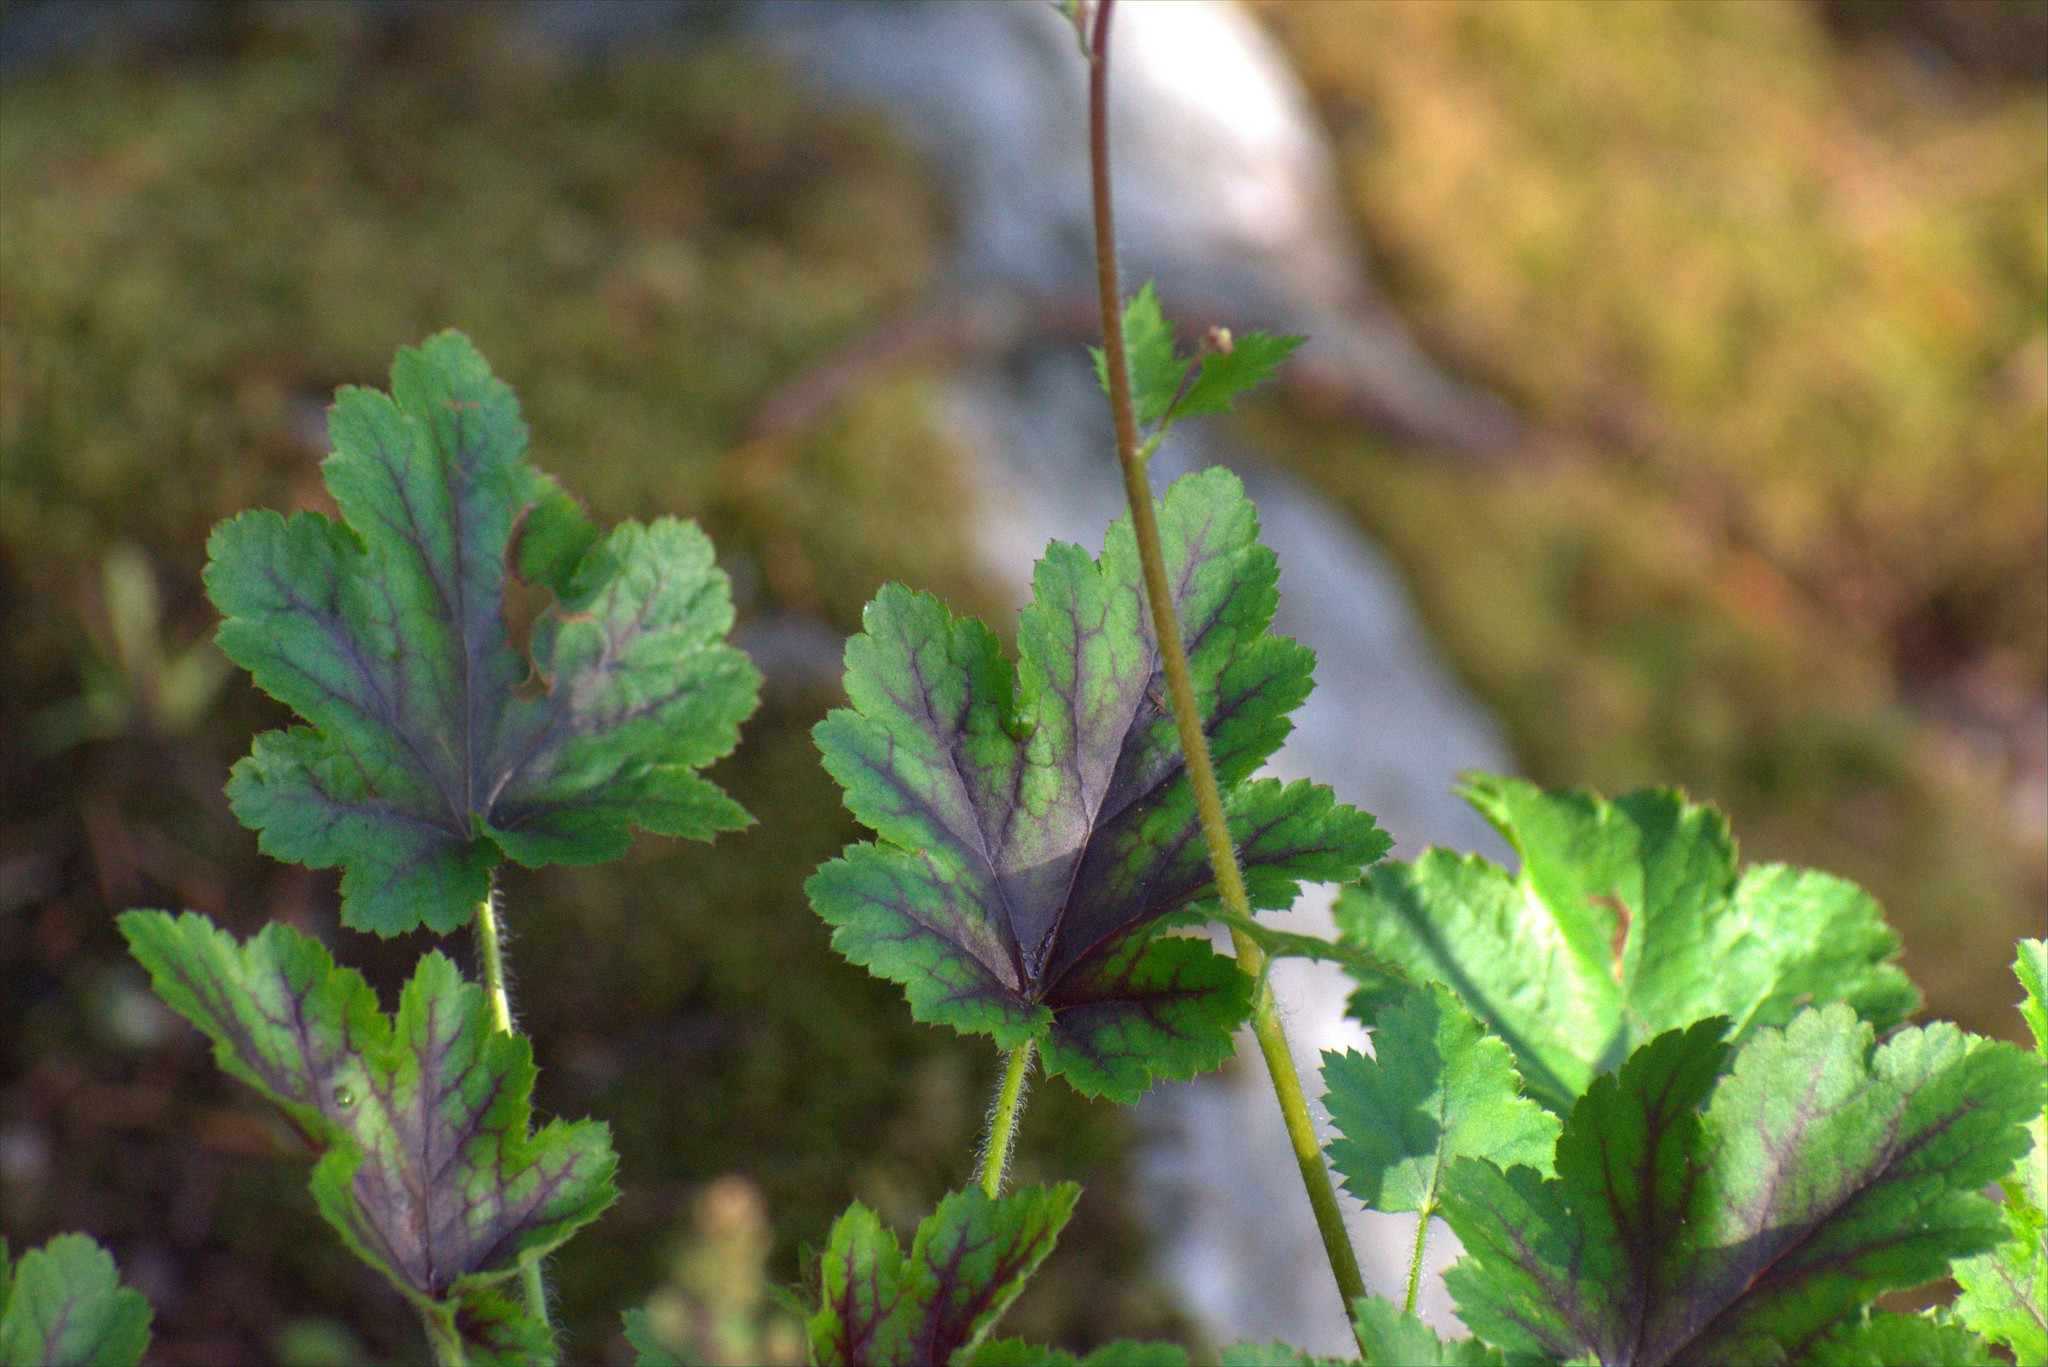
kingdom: Plantae
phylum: Tracheophyta
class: Magnoliopsida
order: Saxifragales
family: Saxifragaceae
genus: Heuchera
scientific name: Heuchera micrantha
